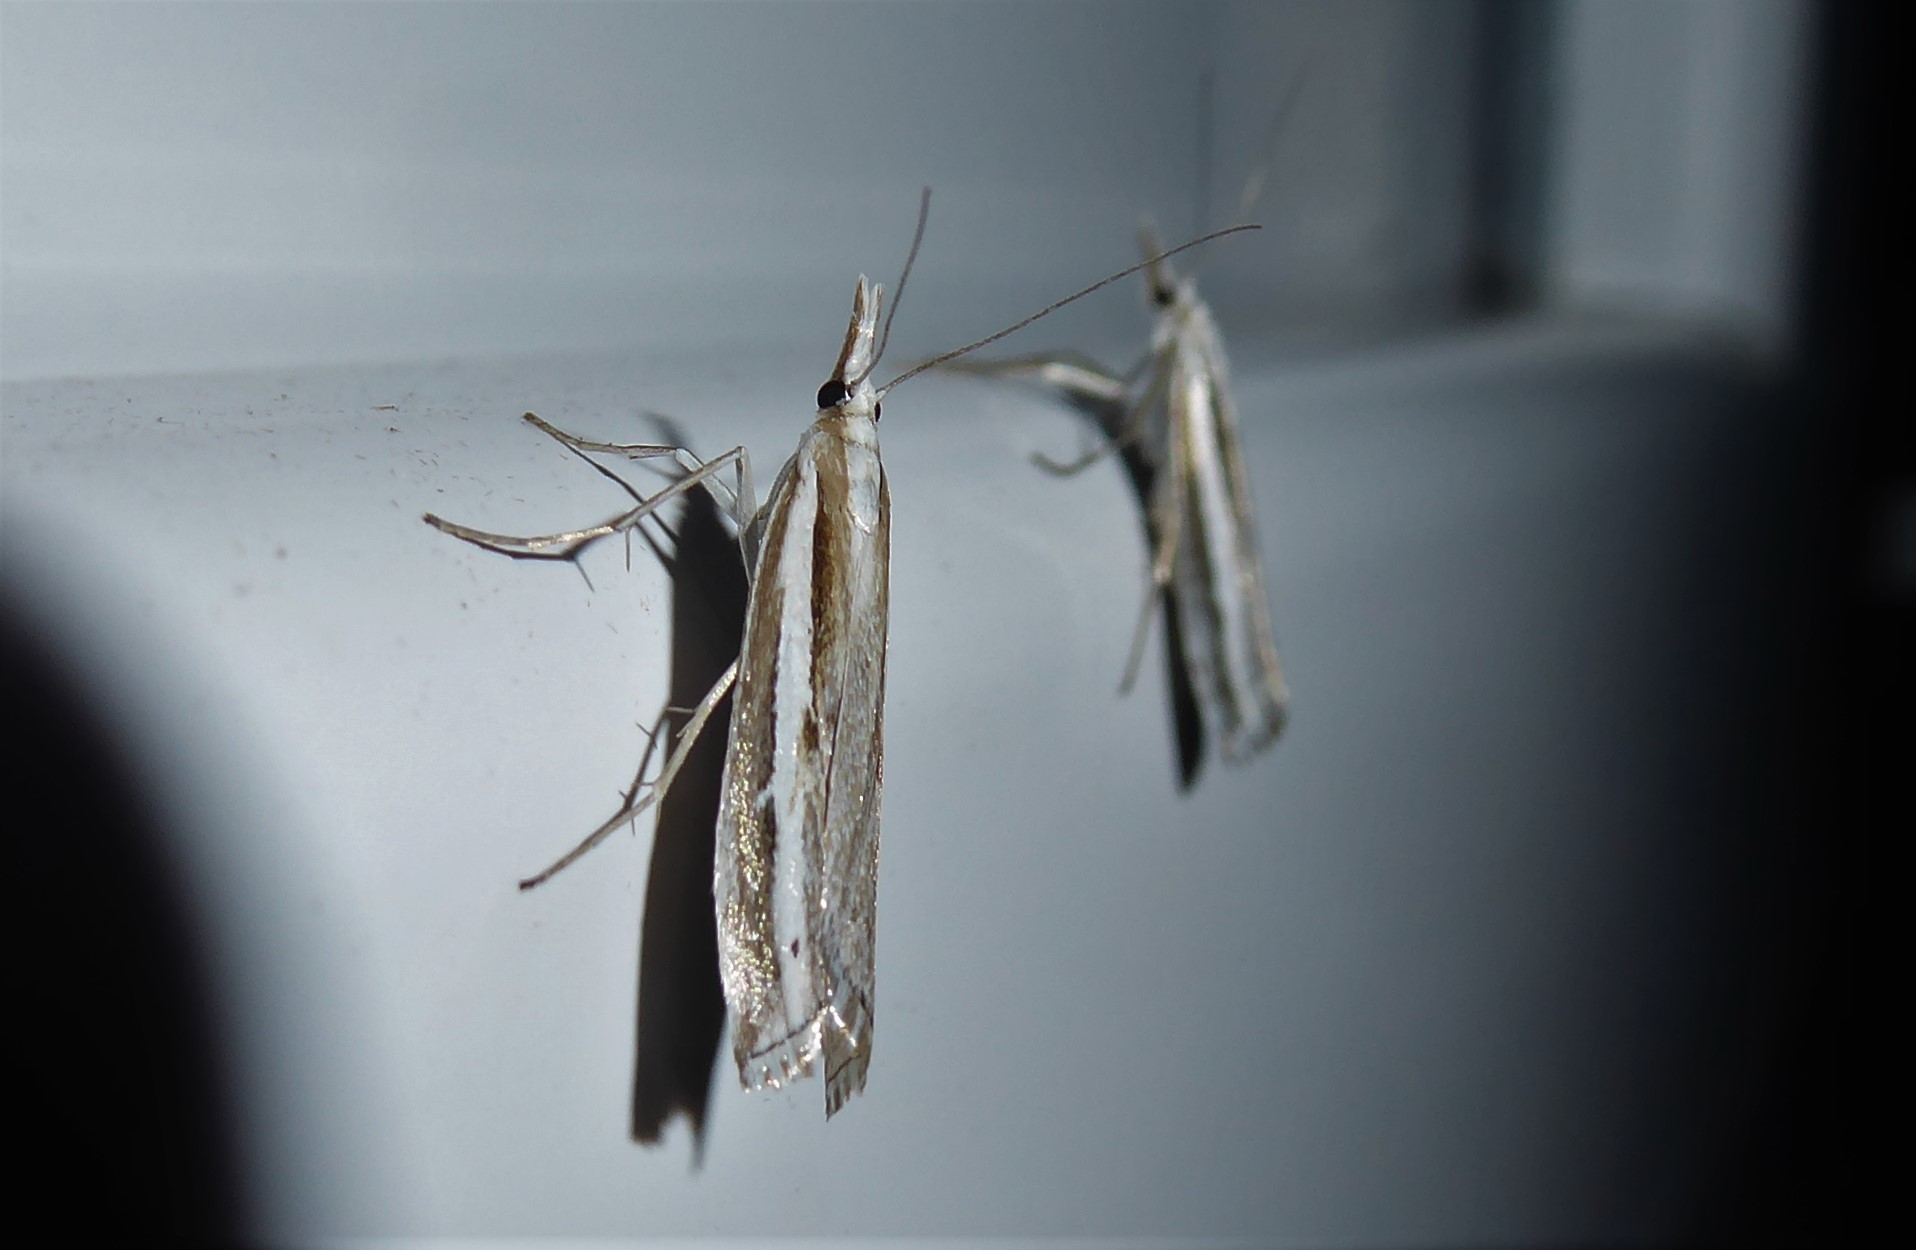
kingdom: Animalia
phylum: Arthropoda
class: Insecta
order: Lepidoptera
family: Crambidae
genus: Orocrambus
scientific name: Orocrambus vittellus
